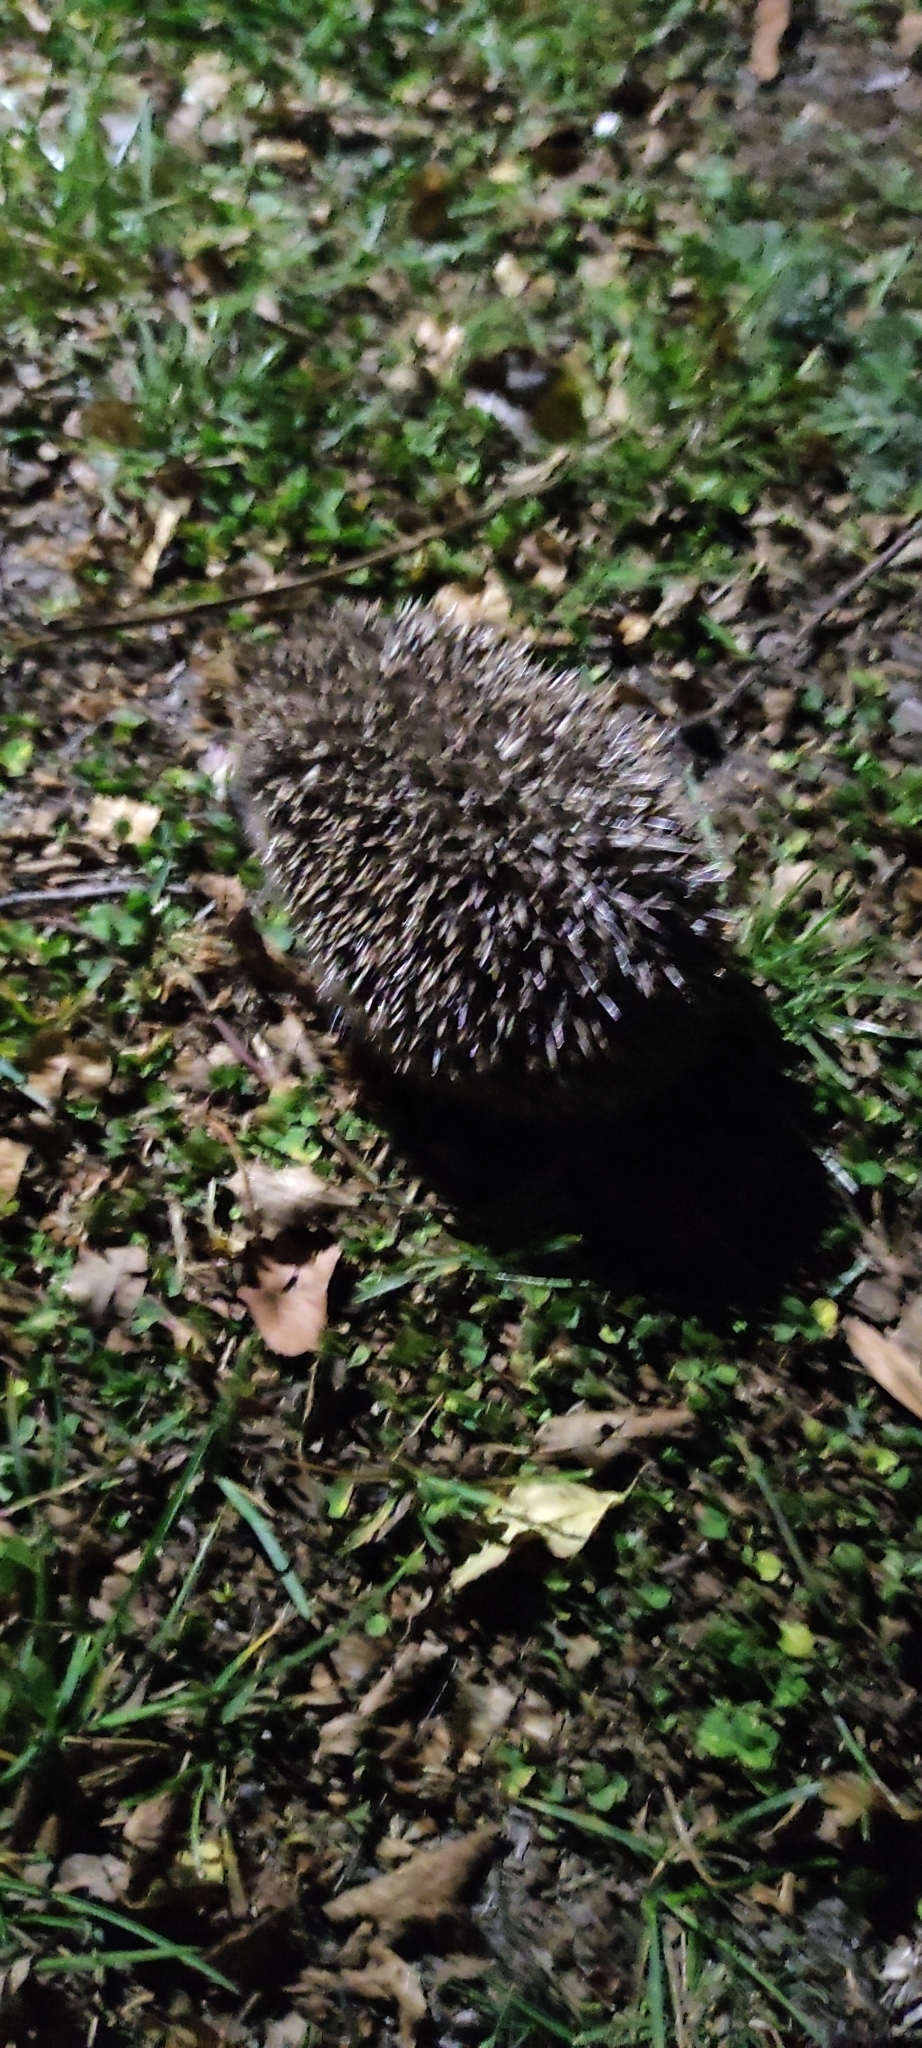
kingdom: Animalia
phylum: Chordata
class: Mammalia
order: Erinaceomorpha
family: Erinaceidae
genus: Erinaceus
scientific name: Erinaceus europaeus
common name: West european hedgehog
